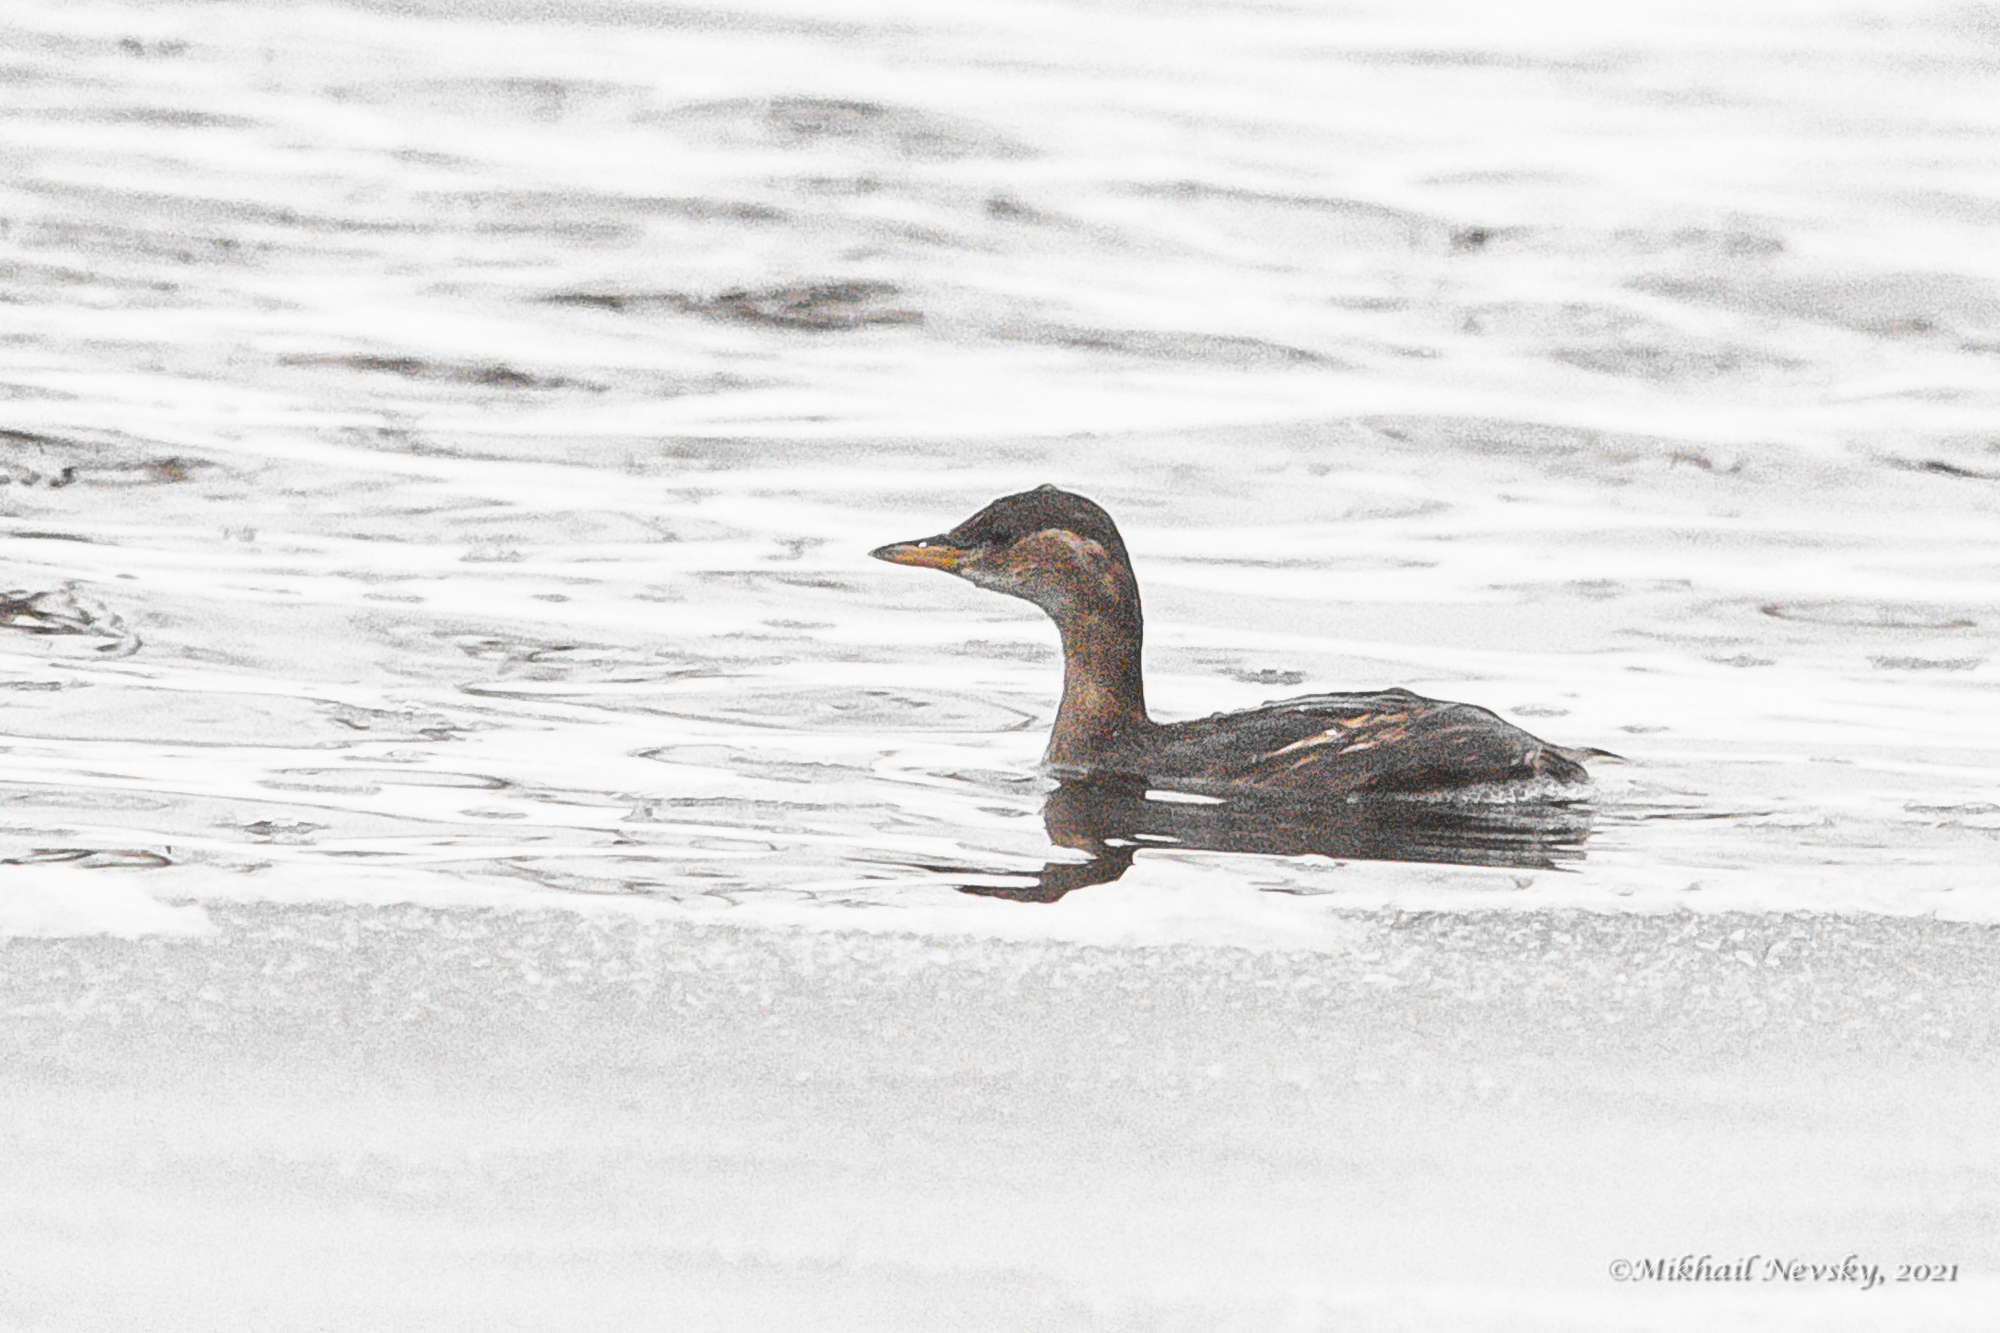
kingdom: Animalia
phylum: Chordata
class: Aves
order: Podicipediformes
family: Podicipedidae
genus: Tachybaptus
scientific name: Tachybaptus ruficollis
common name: Little grebe
